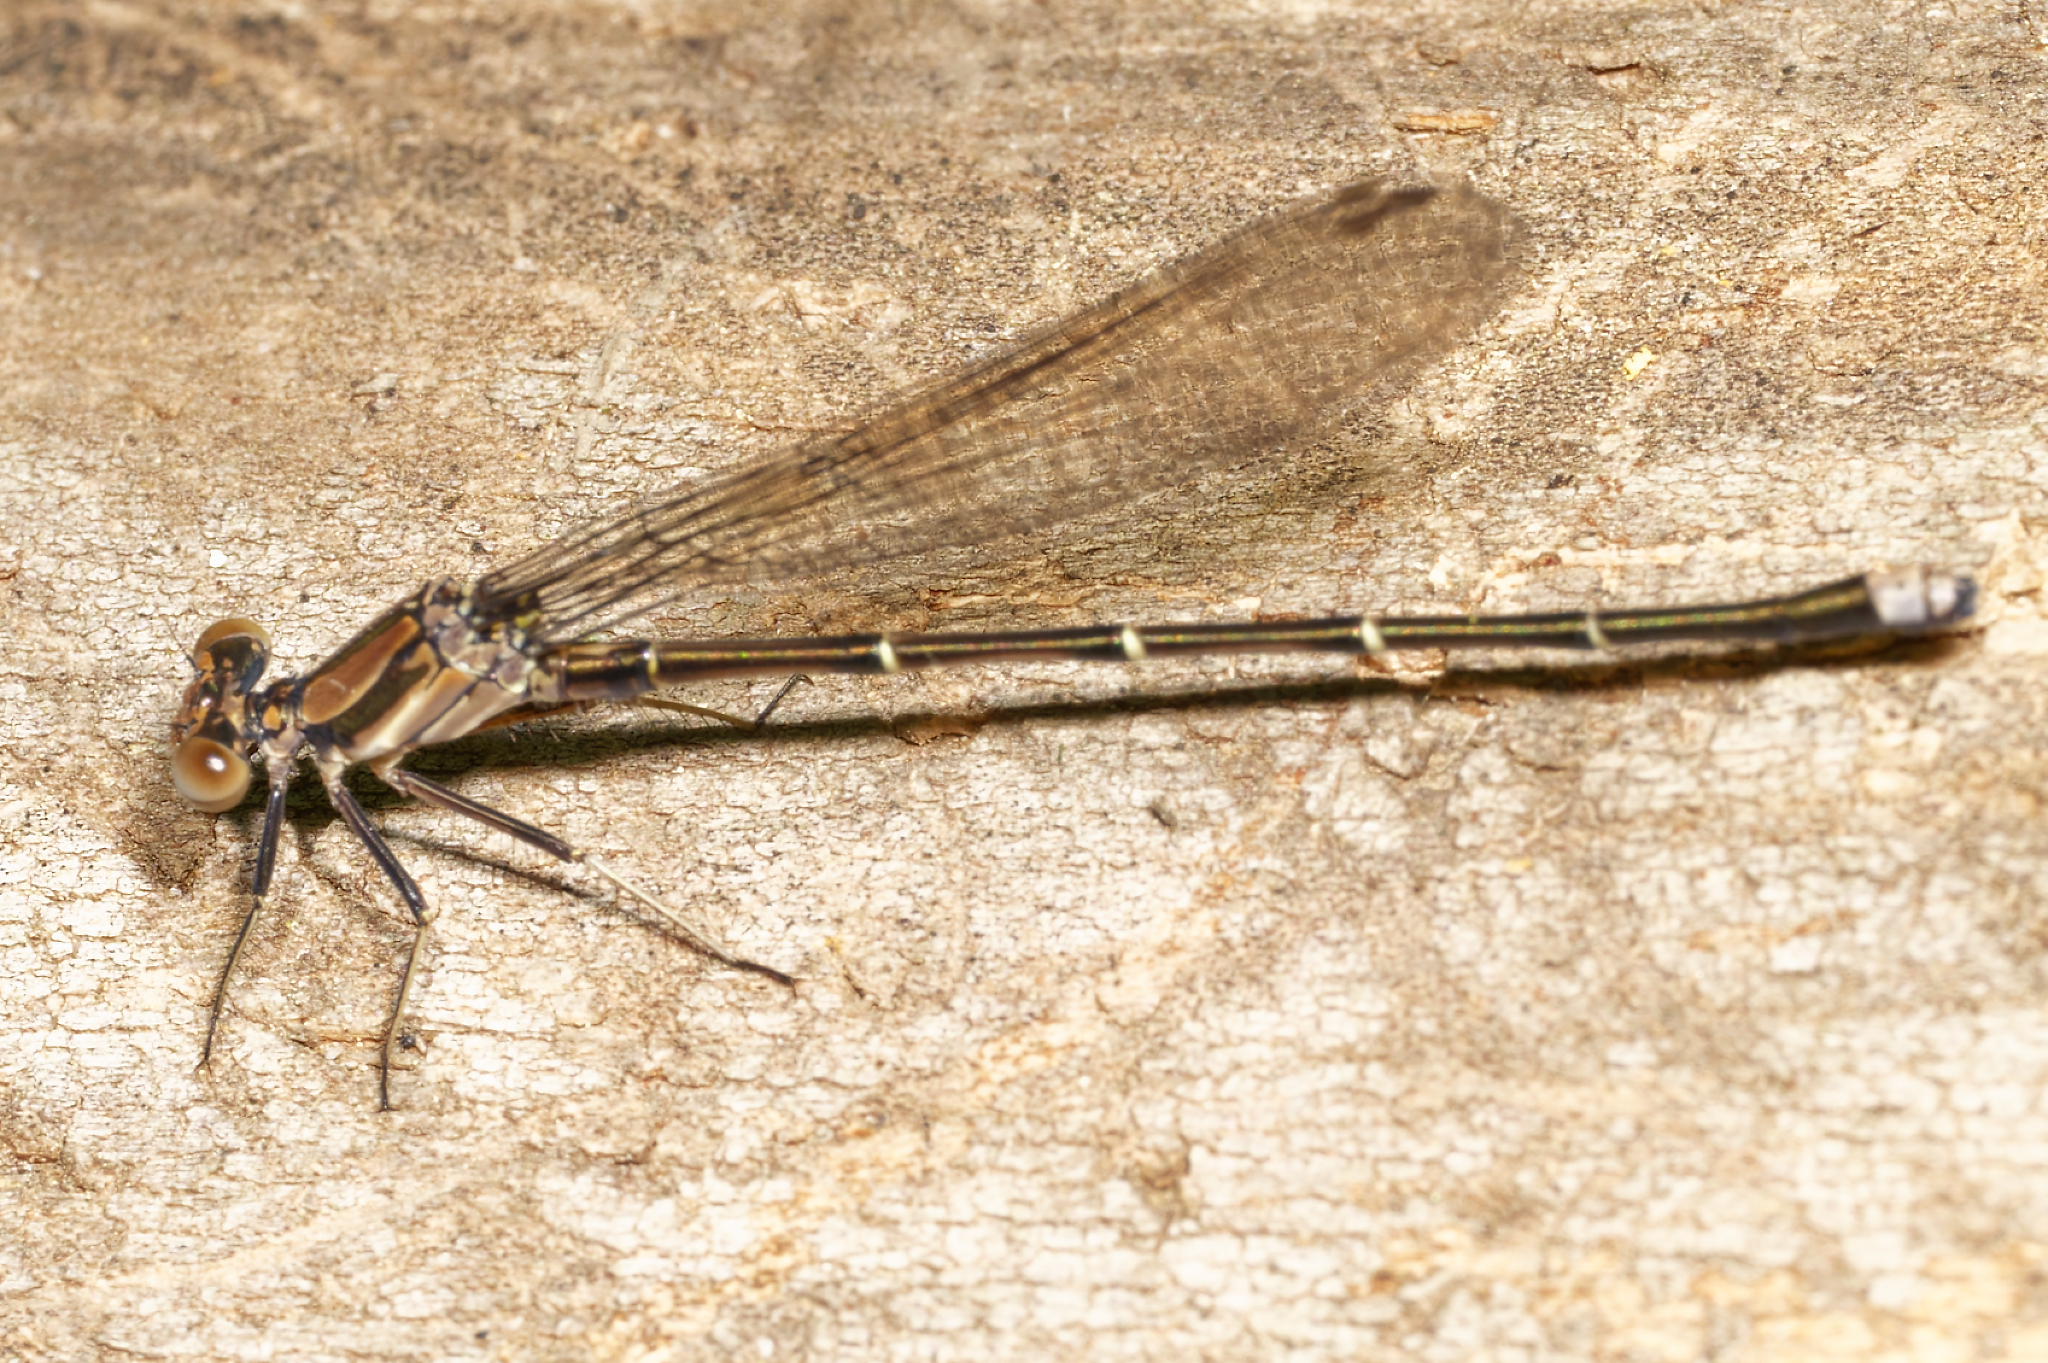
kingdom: Animalia
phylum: Arthropoda
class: Insecta
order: Odonata
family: Coenagrionidae
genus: Argia
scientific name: Argia tibialis
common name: Blue-tipped dancer
